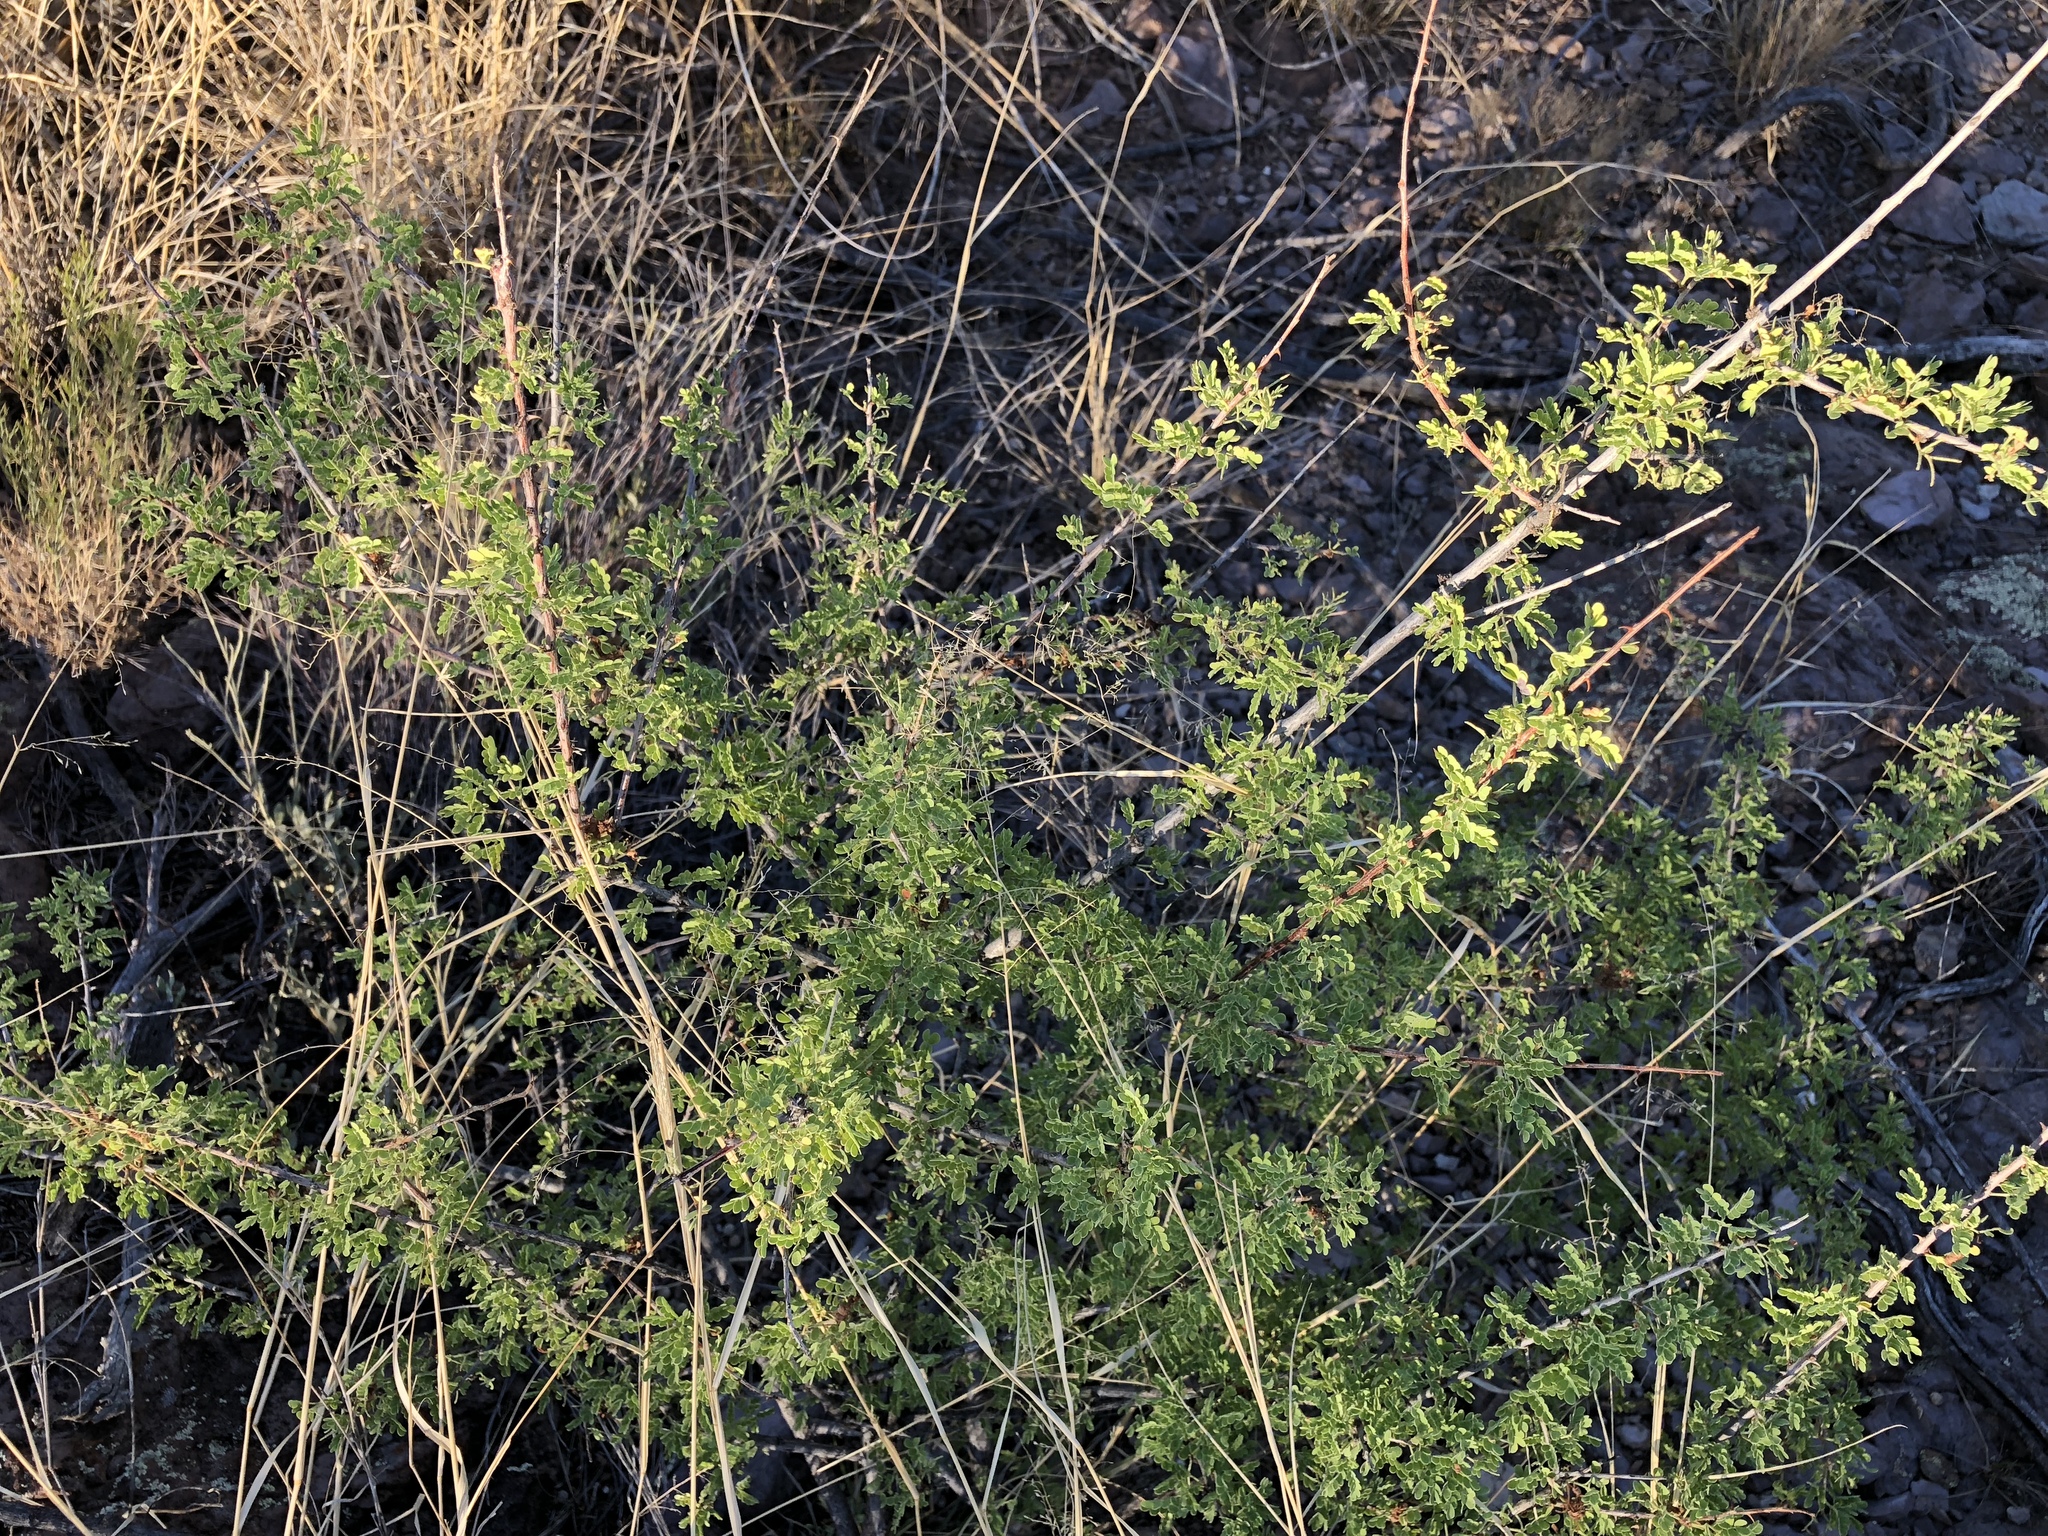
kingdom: Plantae
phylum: Tracheophyta
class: Magnoliopsida
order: Fabales
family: Fabaceae
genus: Senegalia
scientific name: Senegalia greggii
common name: Texas-mimosa
